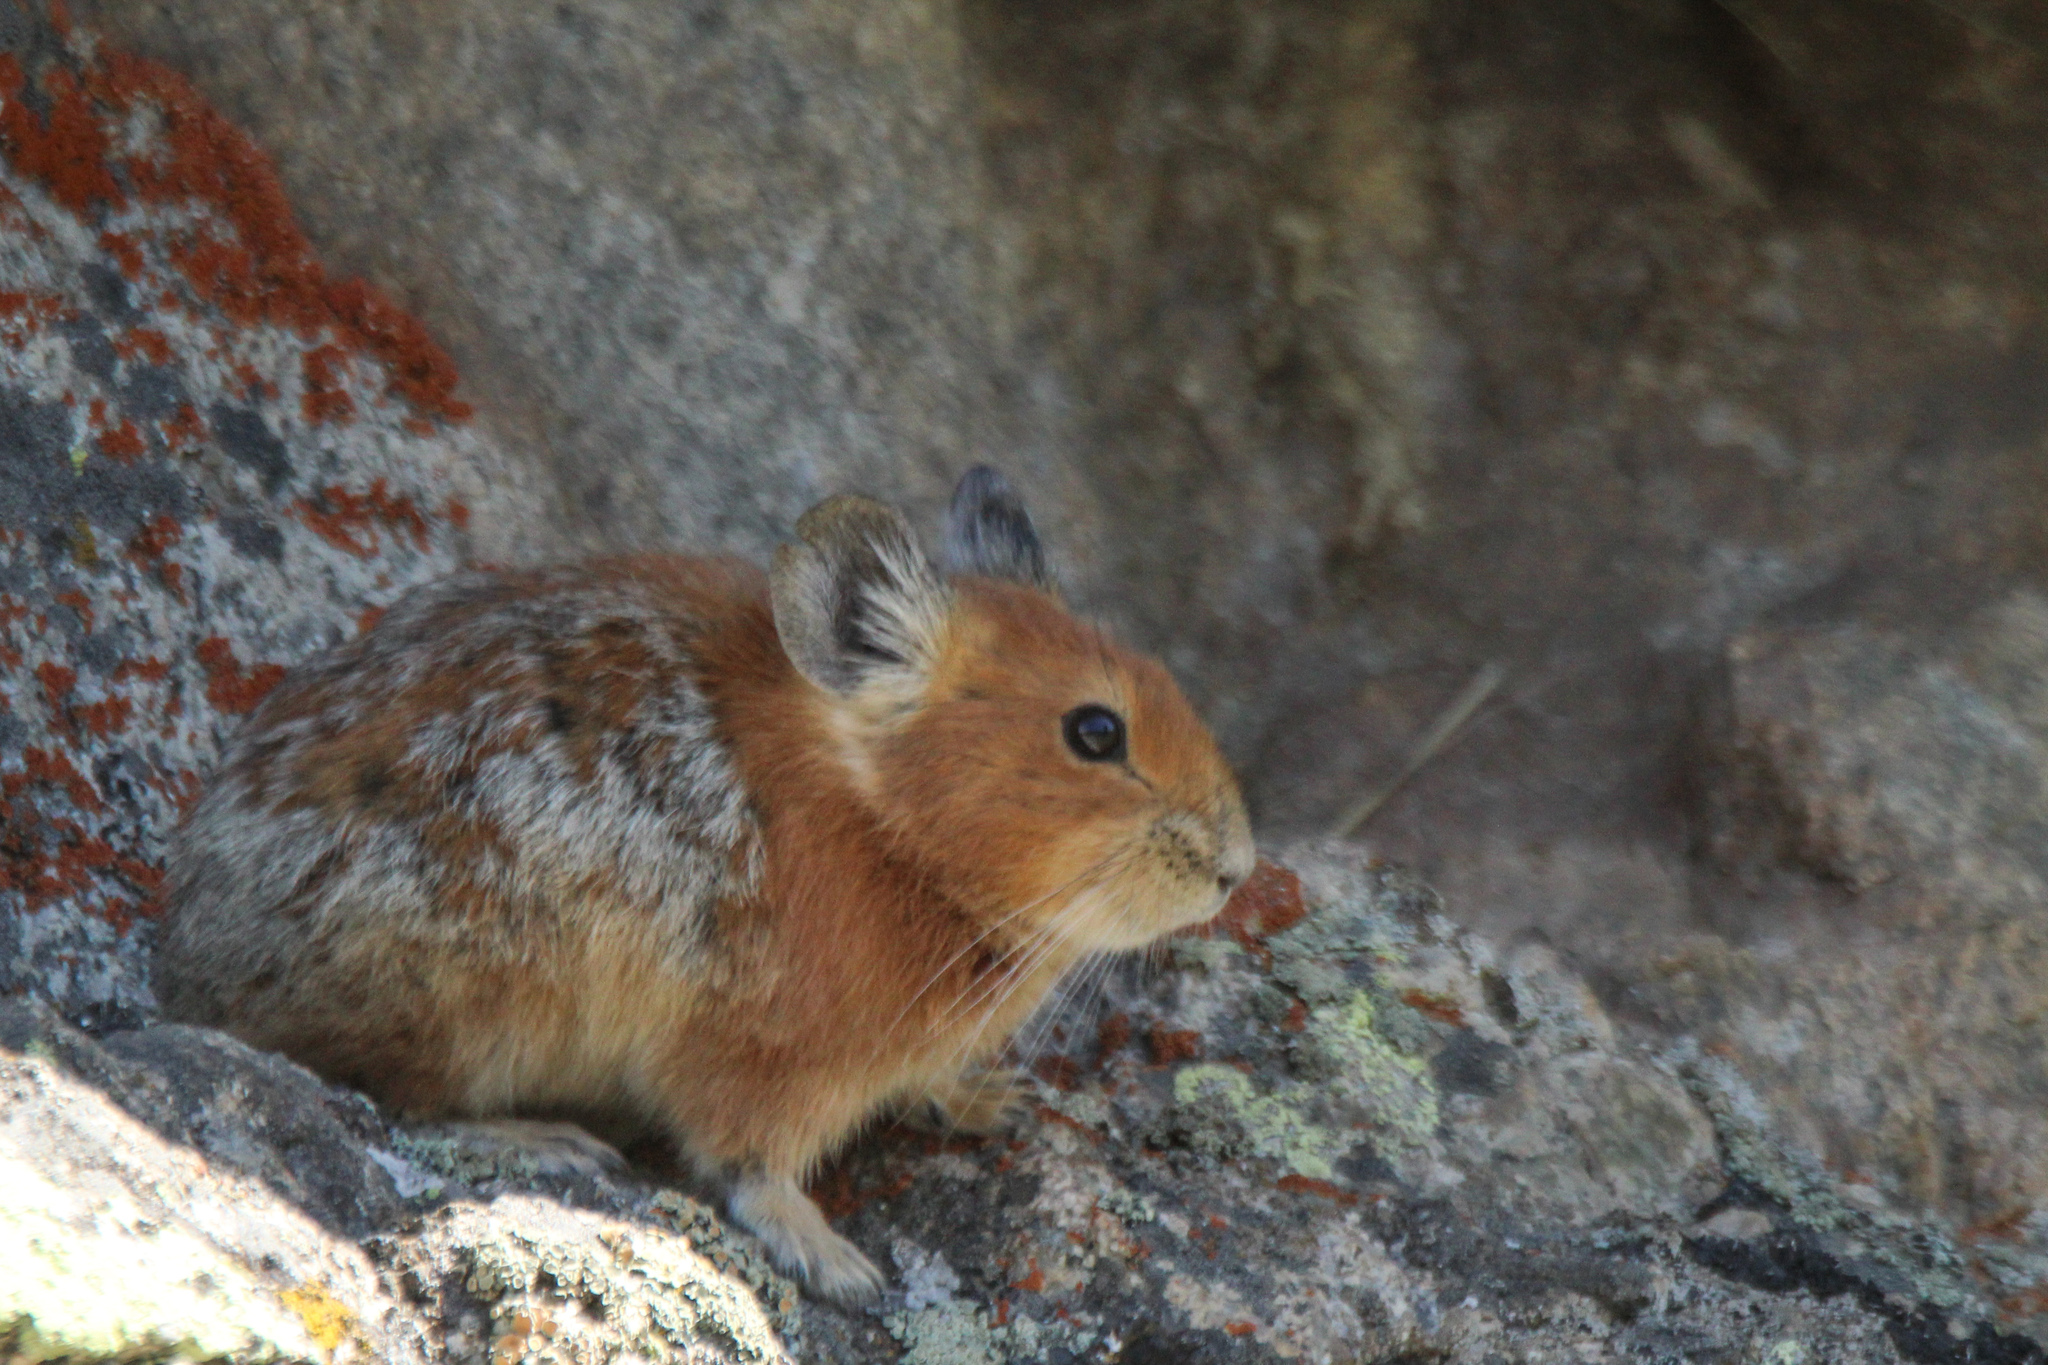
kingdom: Animalia
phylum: Chordata
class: Mammalia
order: Lagomorpha
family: Ochotonidae
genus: Ochotona
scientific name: Ochotona rutila
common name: Turkestan red pika
